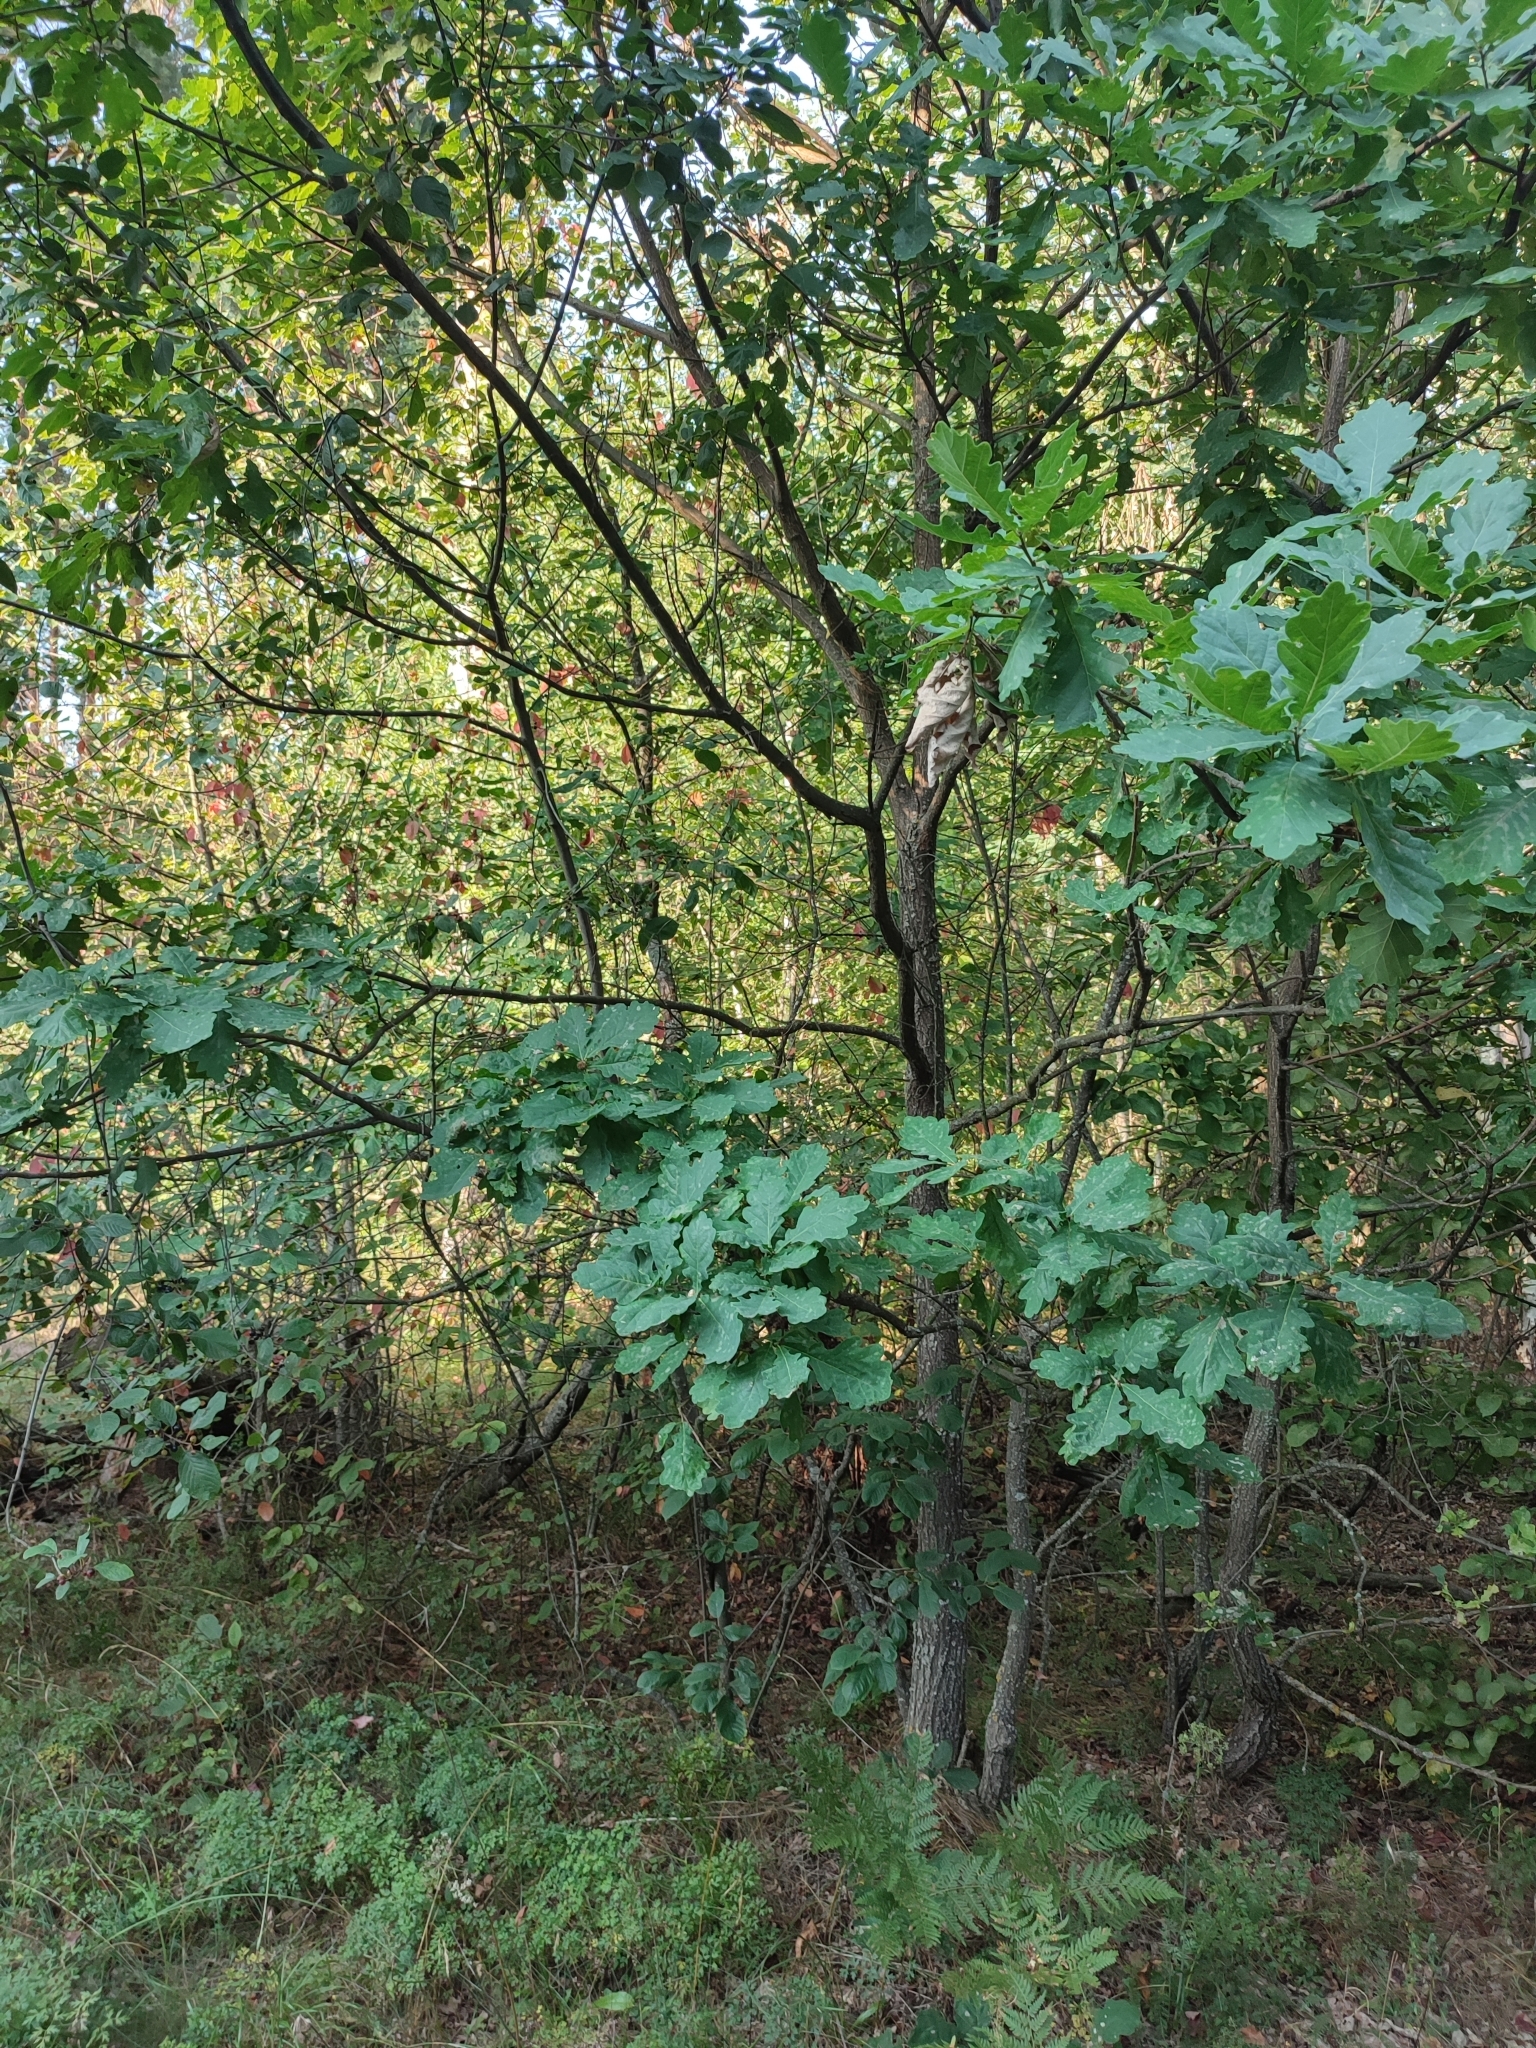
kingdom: Plantae
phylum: Tracheophyta
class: Magnoliopsida
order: Fagales
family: Fagaceae
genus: Quercus
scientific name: Quercus robur
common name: Pedunculate oak
